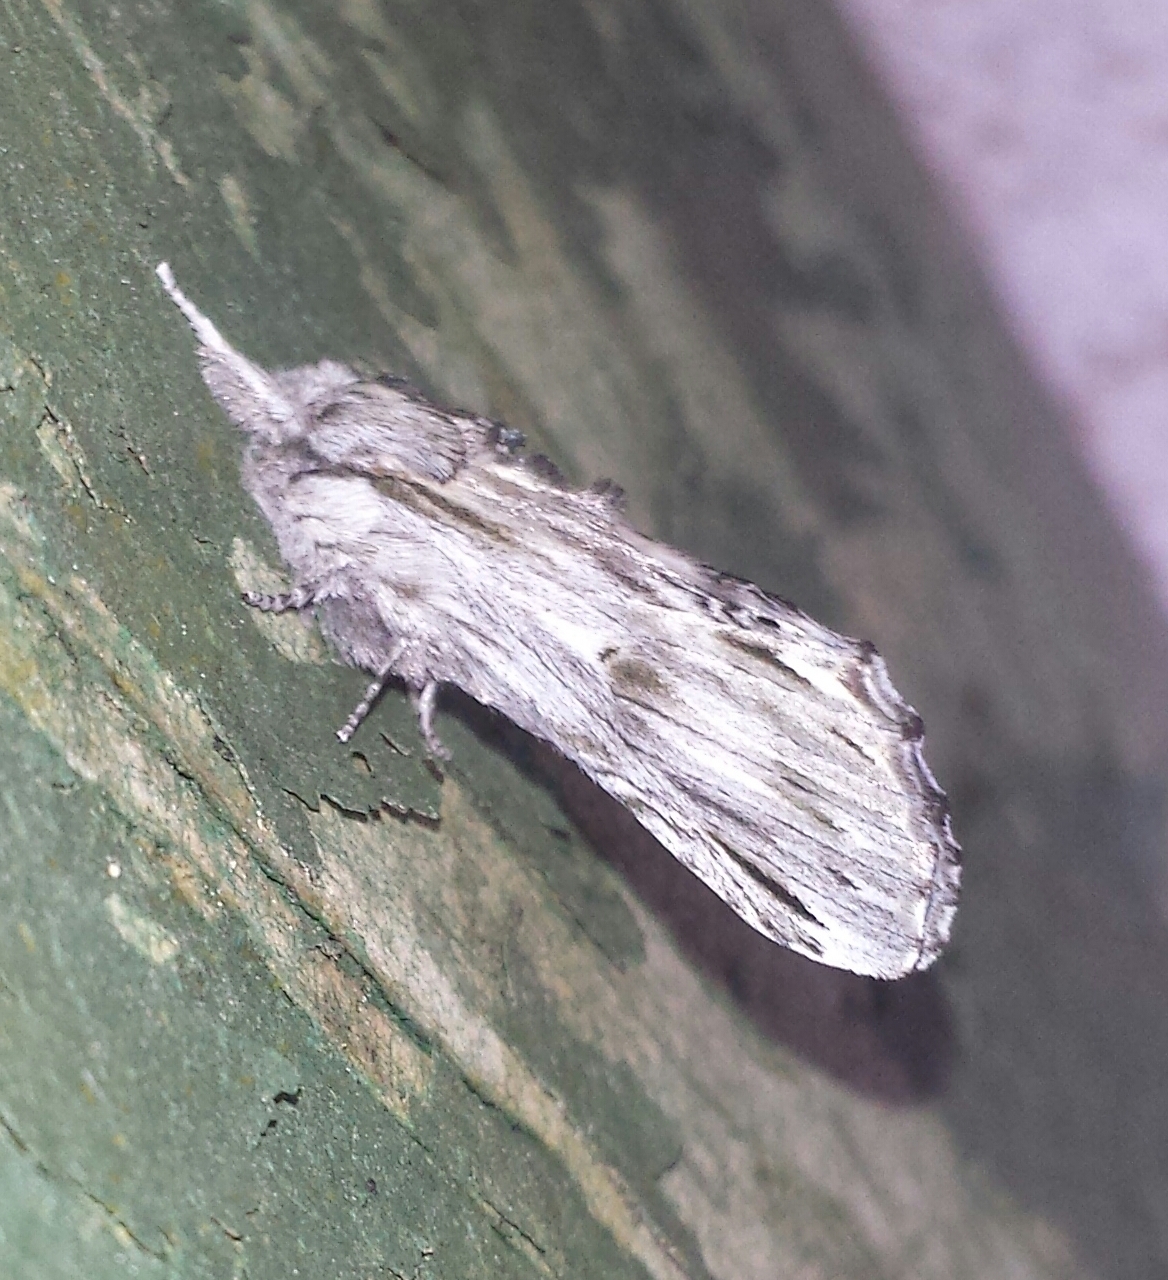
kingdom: Animalia
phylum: Arthropoda
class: Insecta
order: Lepidoptera
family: Notodontidae
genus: Oligocentria
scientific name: Oligocentria Ianassa lignicolor
